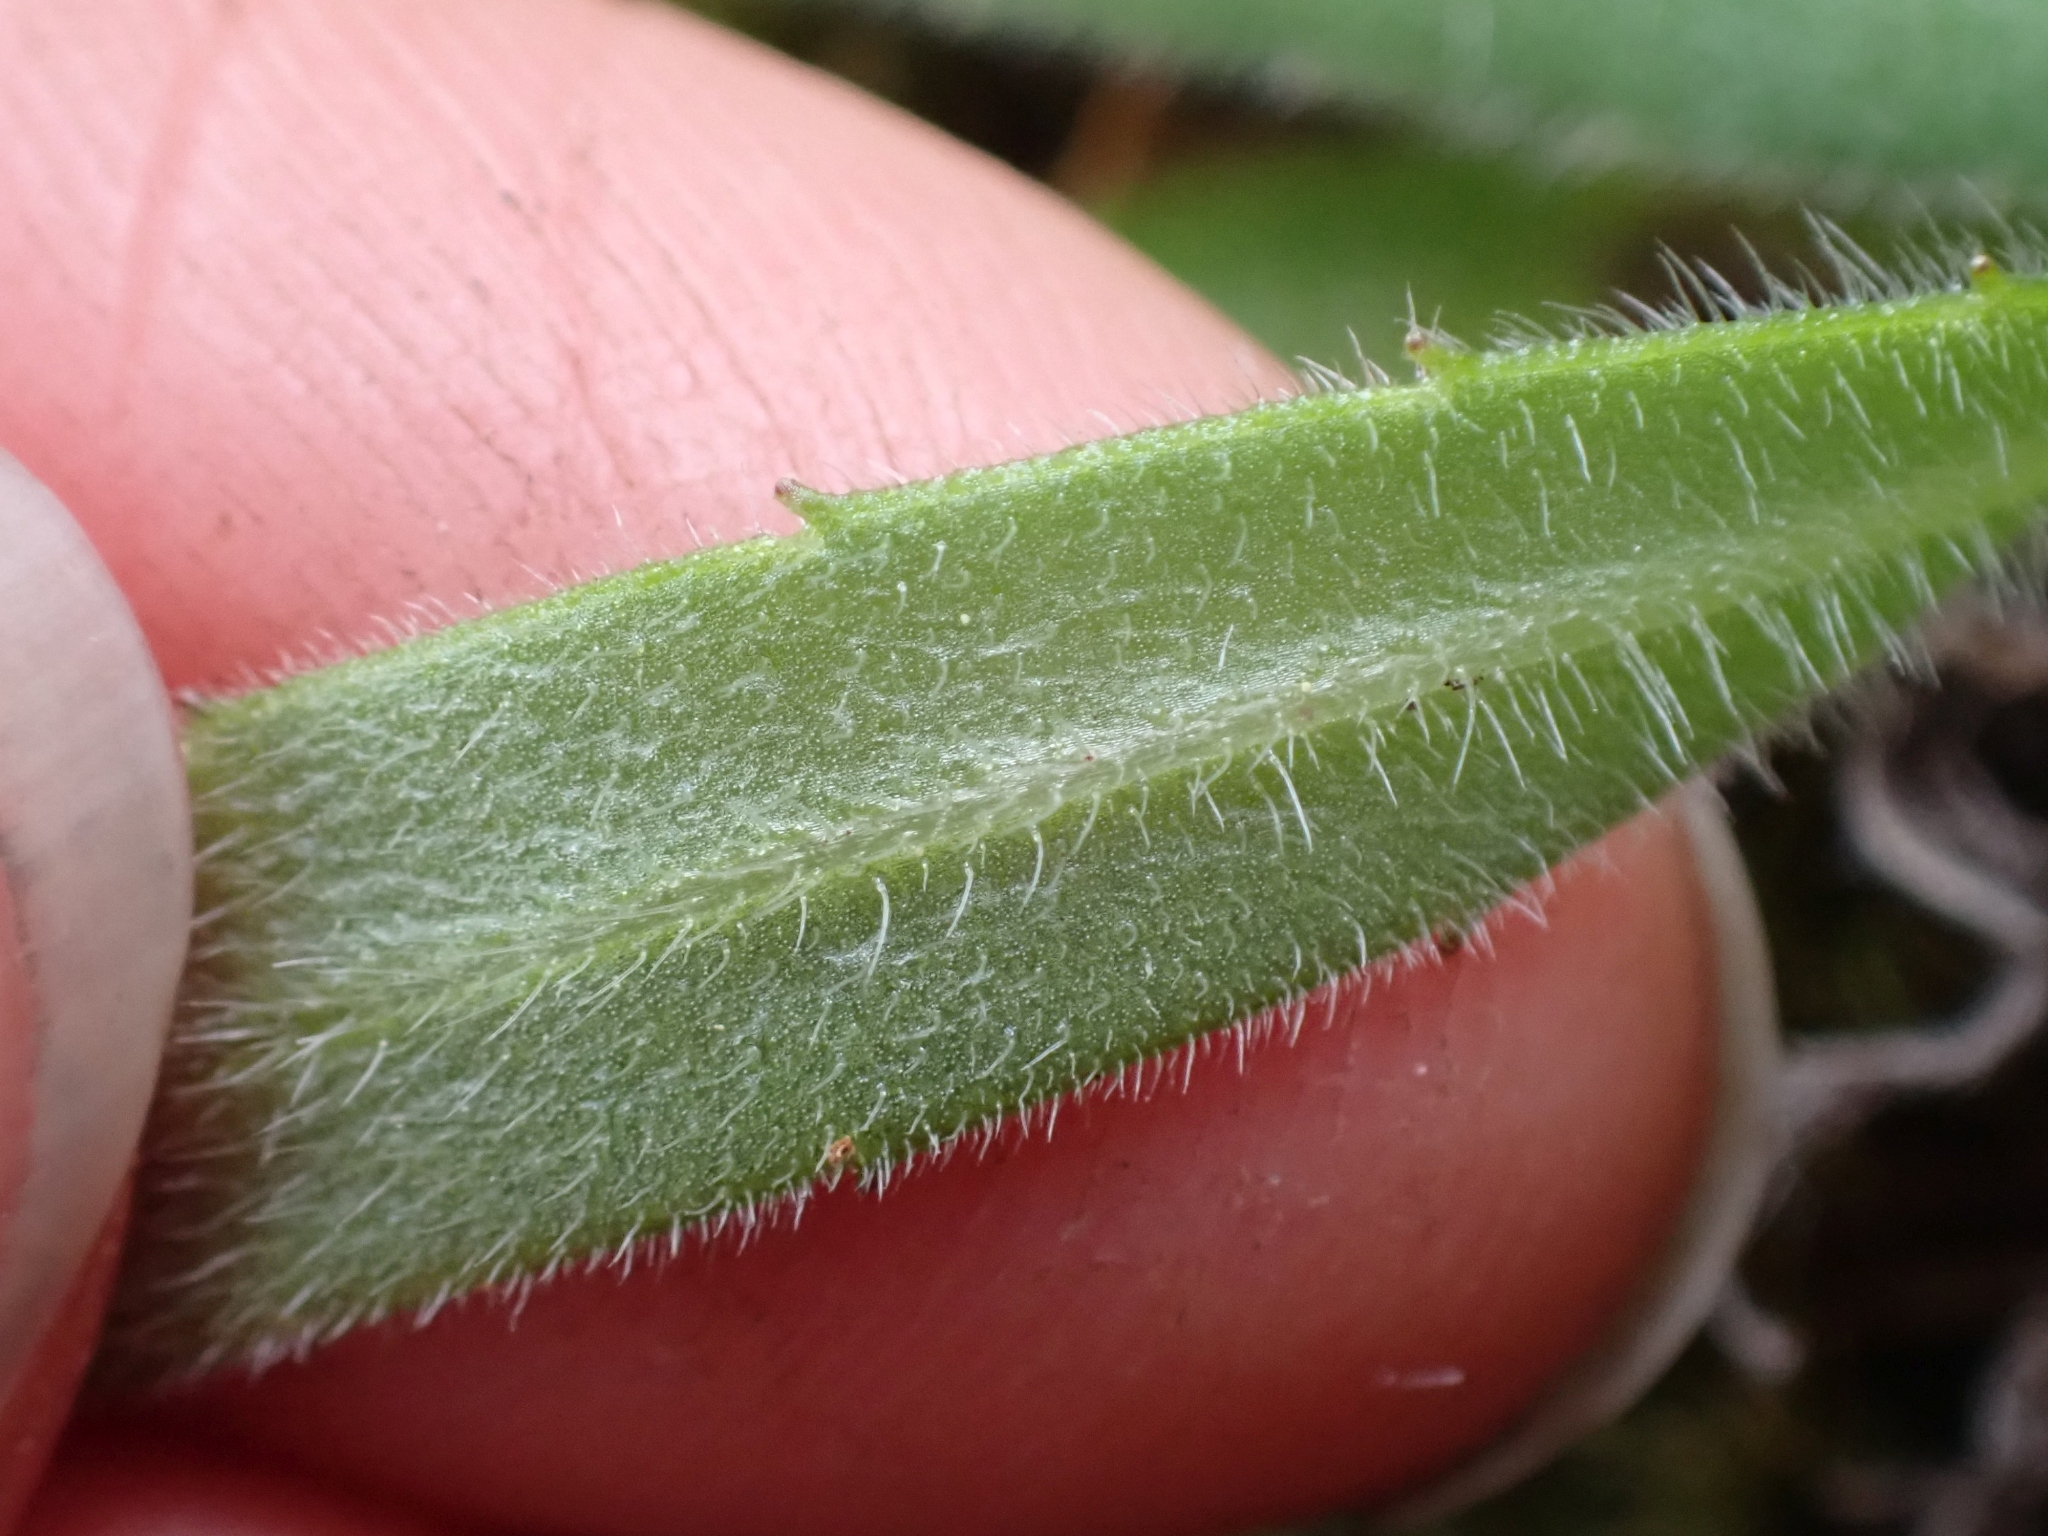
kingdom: Plantae
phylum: Tracheophyta
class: Magnoliopsida
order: Asterales
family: Asteraceae
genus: Anisocarpus
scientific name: Anisocarpus madioides
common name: Woodland madia
